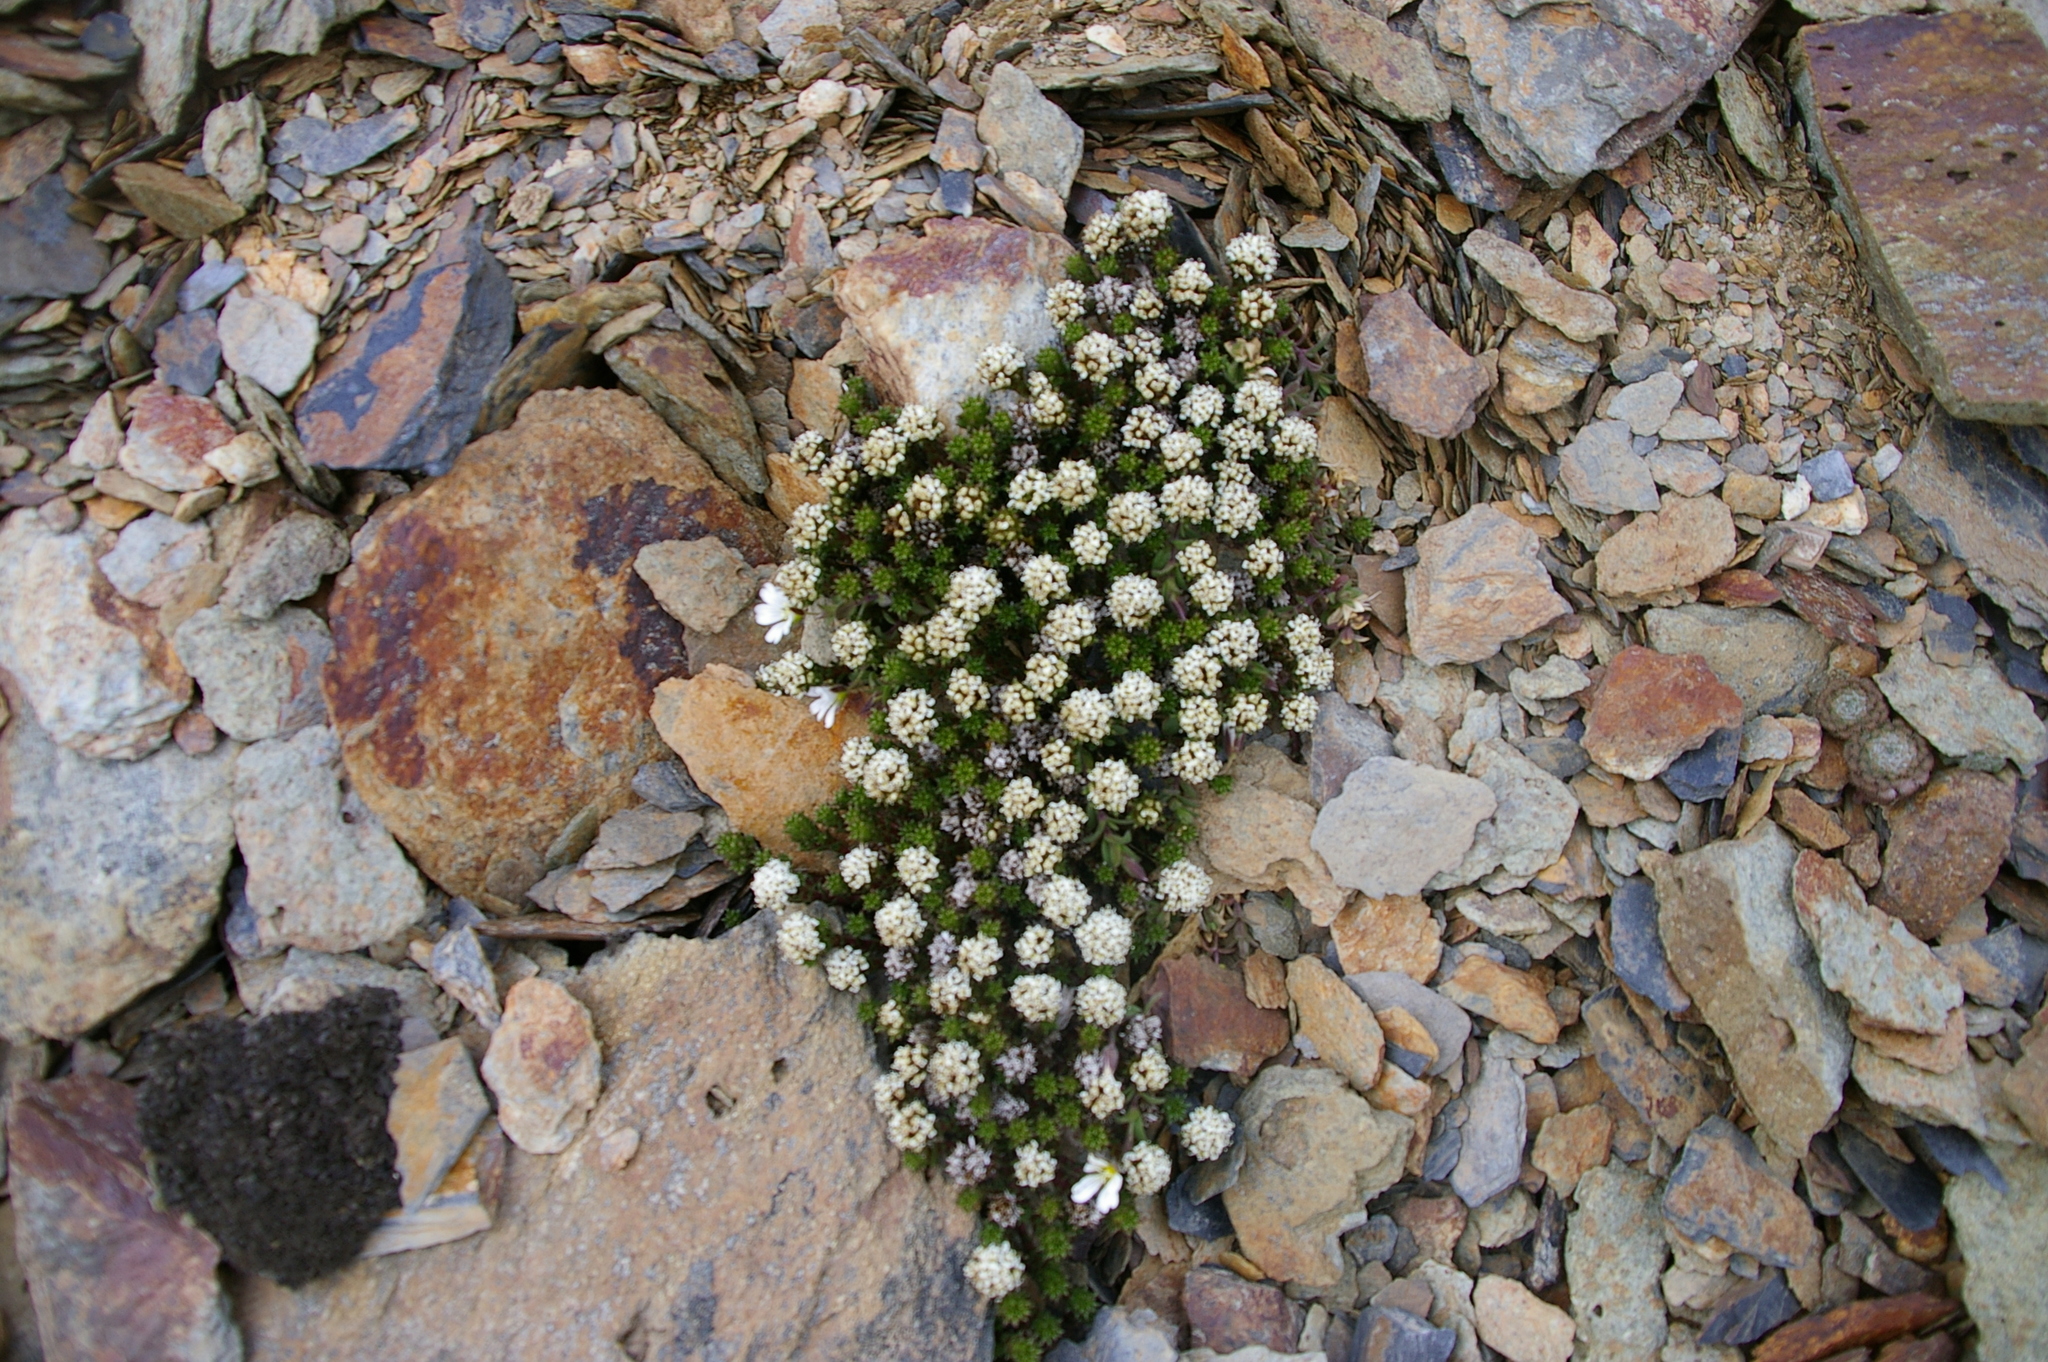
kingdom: Plantae
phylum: Tracheophyta
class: Magnoliopsida
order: Asterales
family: Asteraceae
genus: Nassauvia
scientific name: Nassauvia pygmaea
